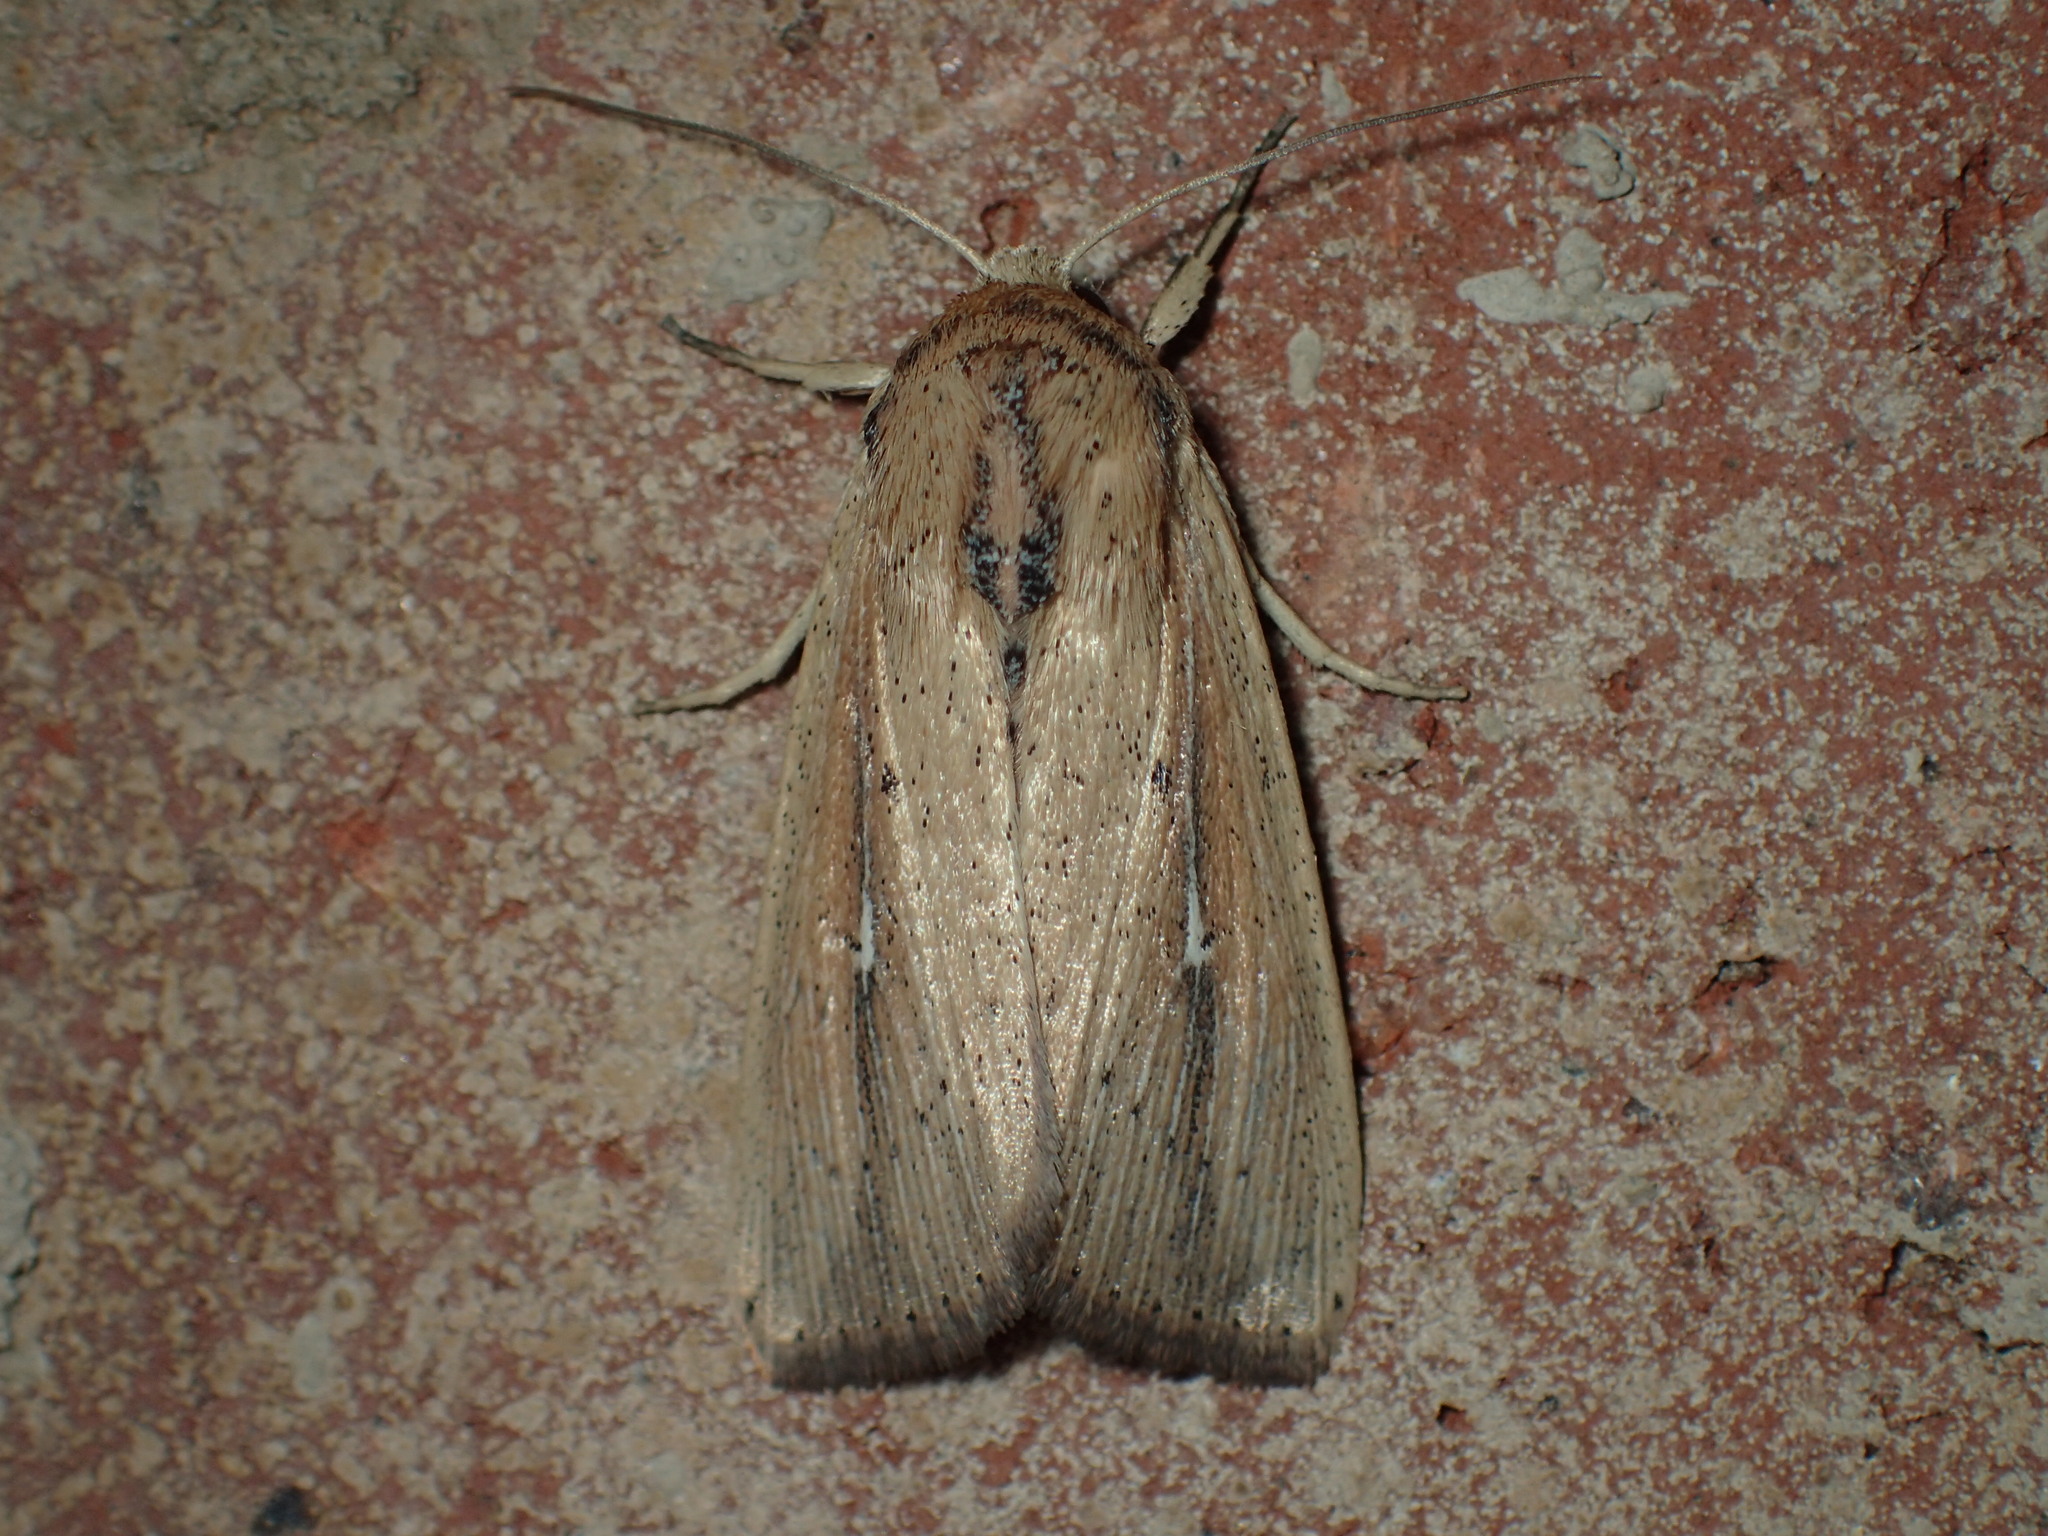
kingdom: Animalia
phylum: Arthropoda
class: Insecta
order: Lepidoptera
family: Noctuidae
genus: Mythimna
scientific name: Mythimna unipuncta
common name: White-speck
